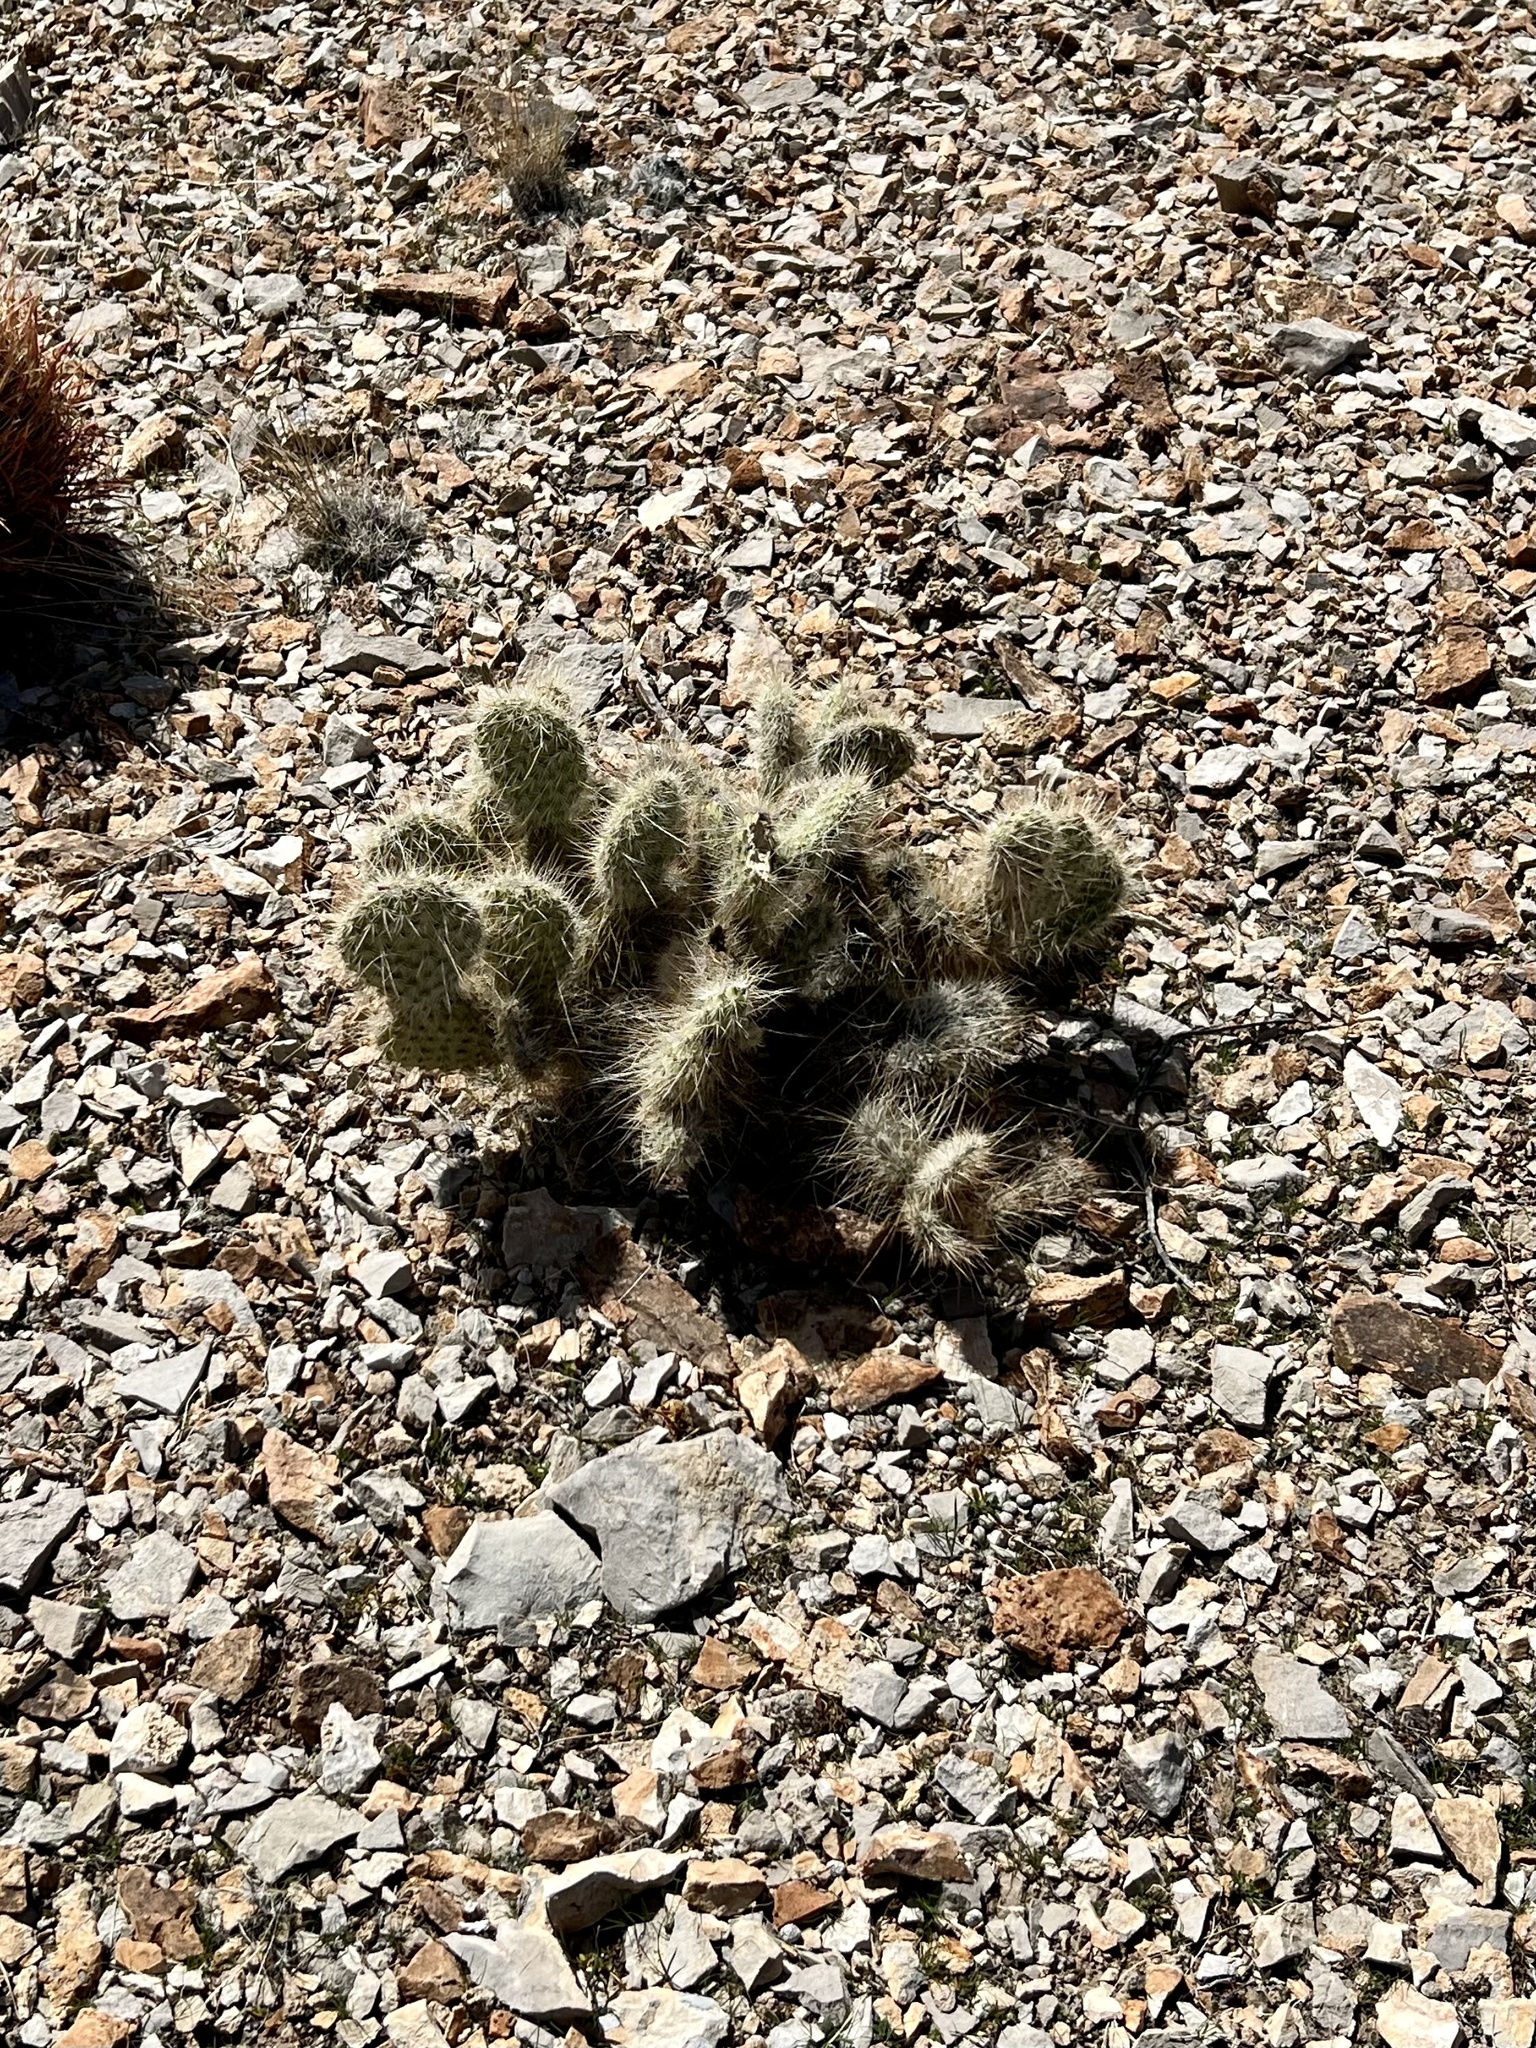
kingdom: Plantae
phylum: Tracheophyta
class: Magnoliopsida
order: Caryophyllales
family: Cactaceae
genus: Opuntia
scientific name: Opuntia polyacantha
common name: Plains prickly-pear
